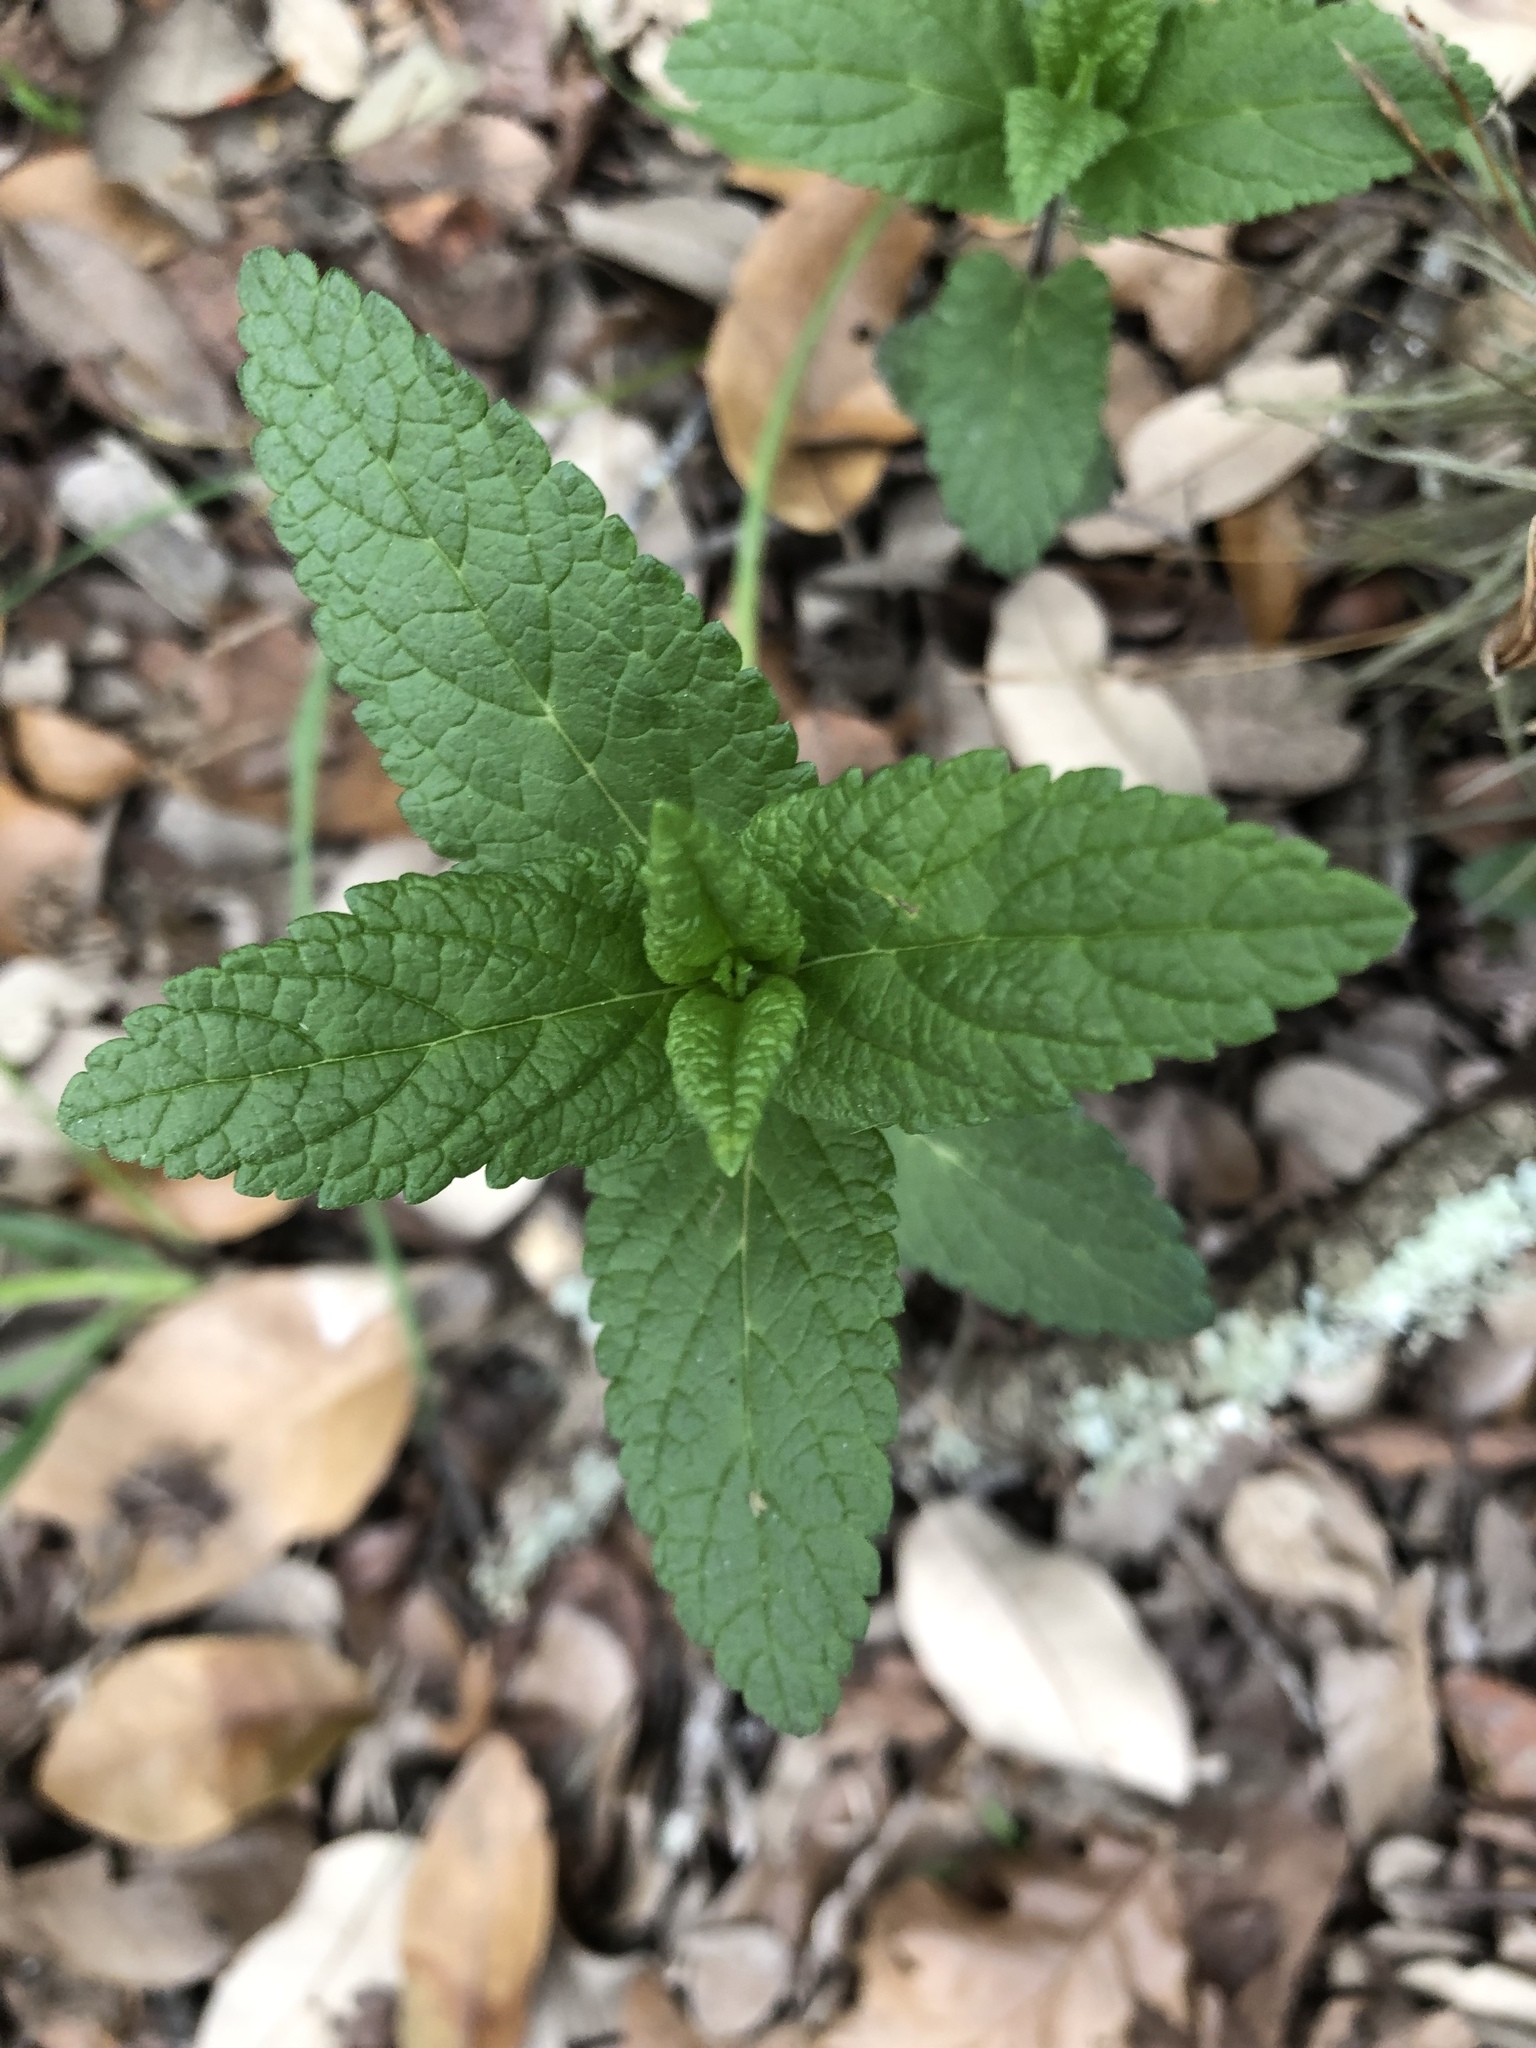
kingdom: Plantae
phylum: Tracheophyta
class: Magnoliopsida
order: Lamiales
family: Lamiaceae
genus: Teucrium
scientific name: Teucrium canadense
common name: American germander
